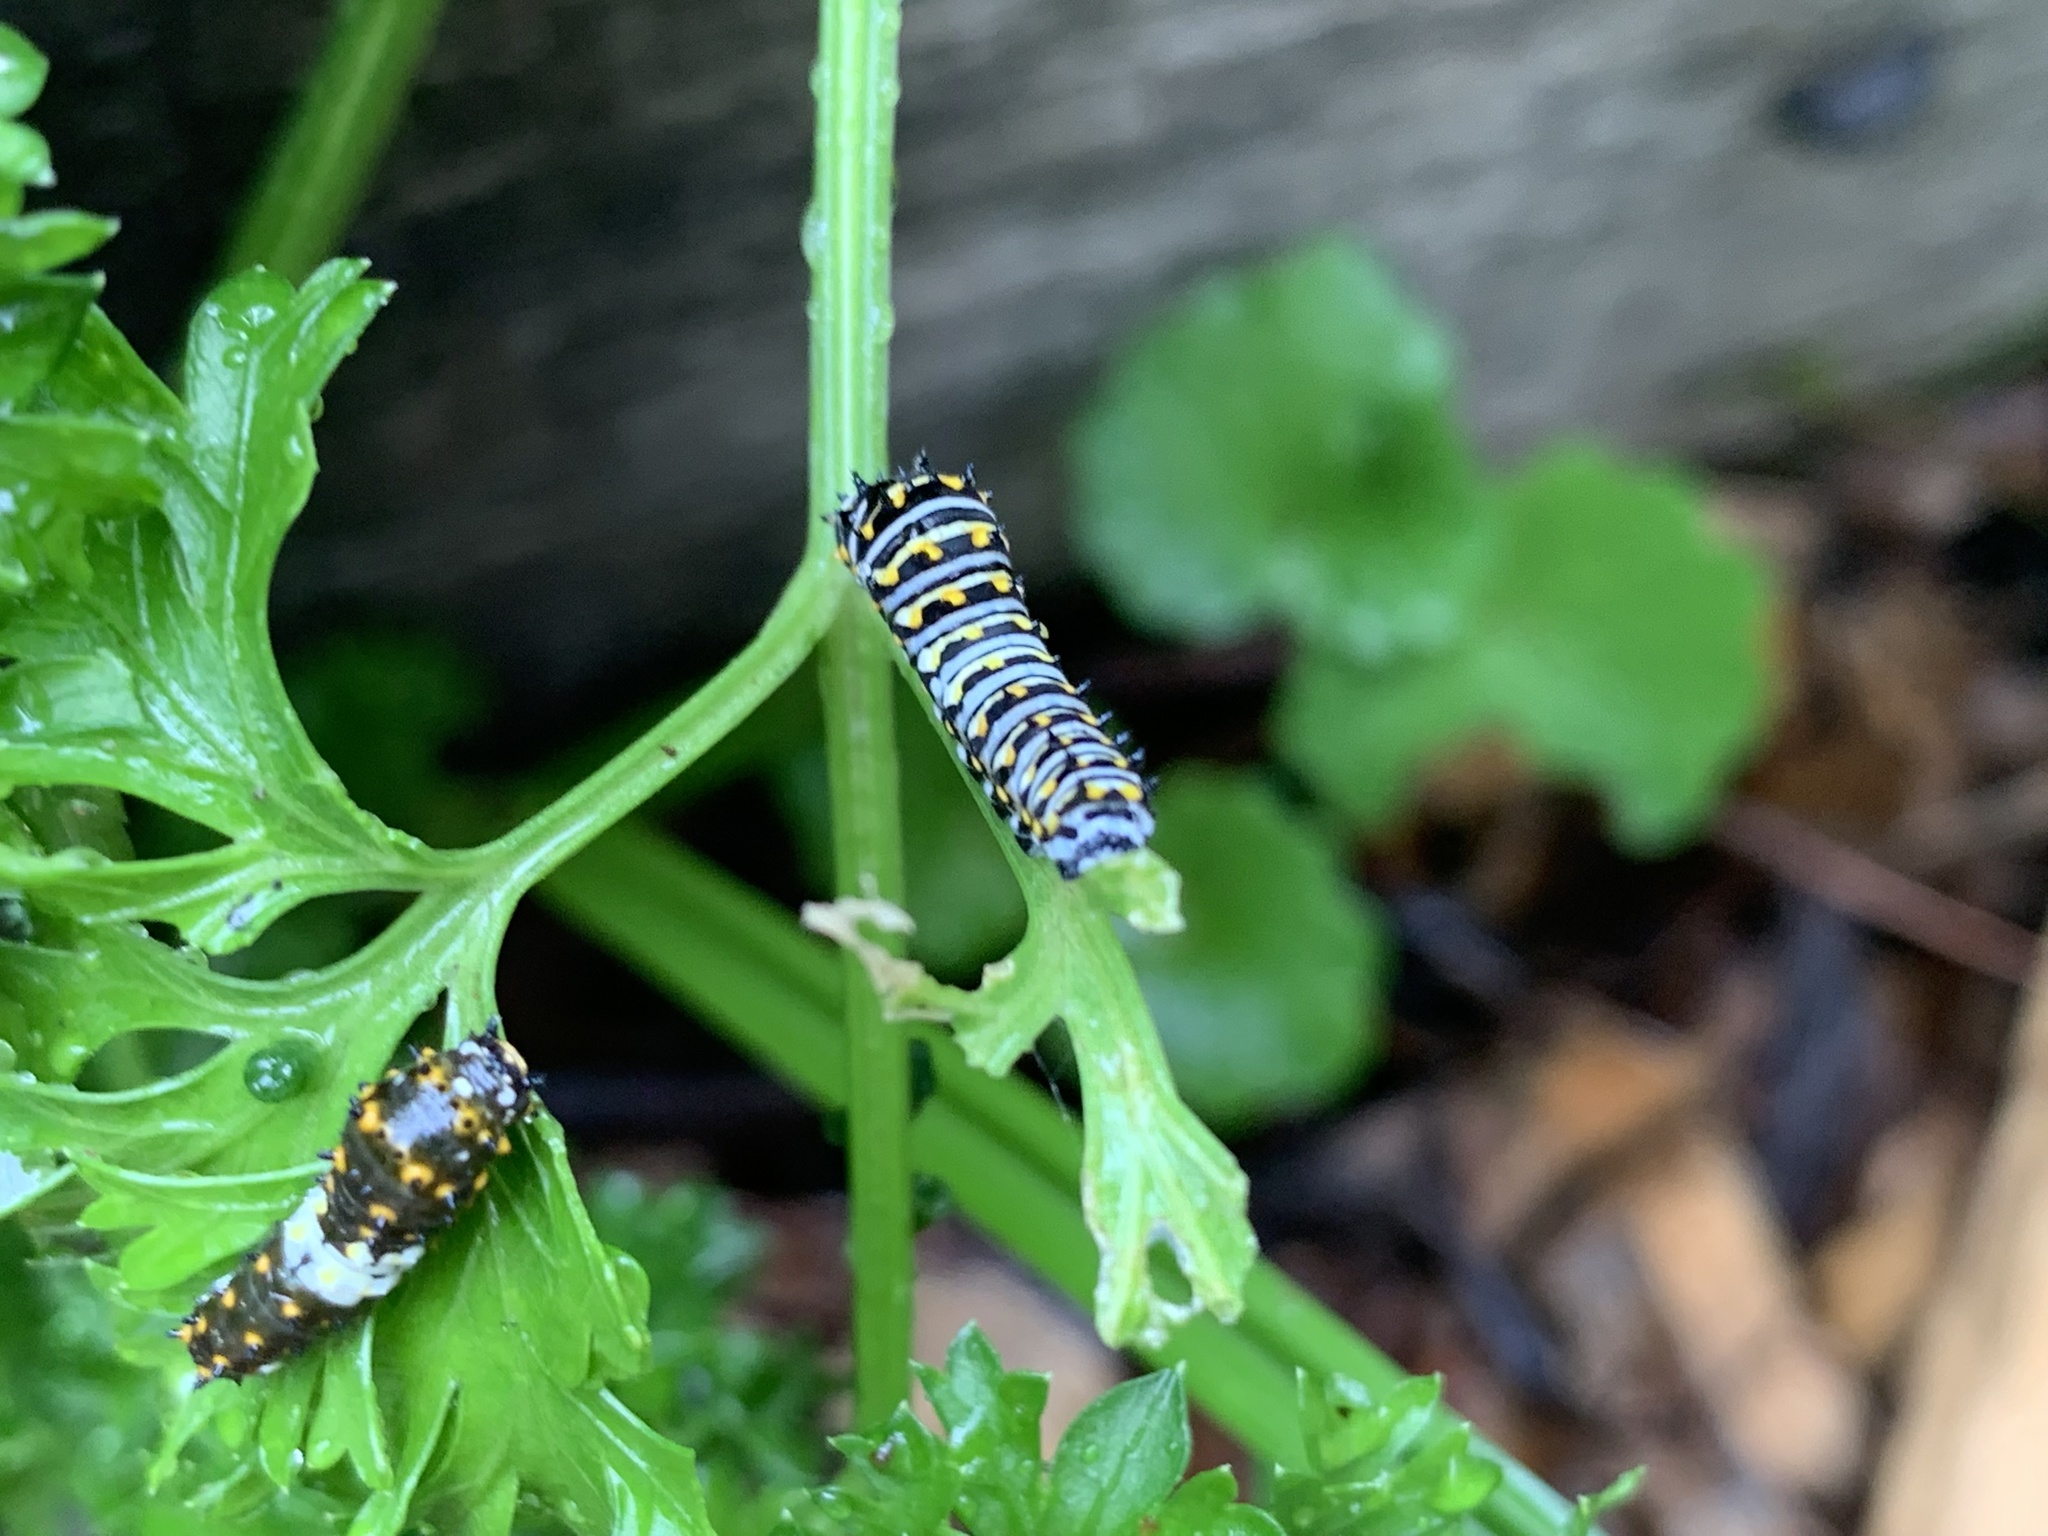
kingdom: Animalia
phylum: Arthropoda
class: Insecta
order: Lepidoptera
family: Papilionidae
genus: Papilio
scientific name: Papilio polyxenes
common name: Black swallowtail
